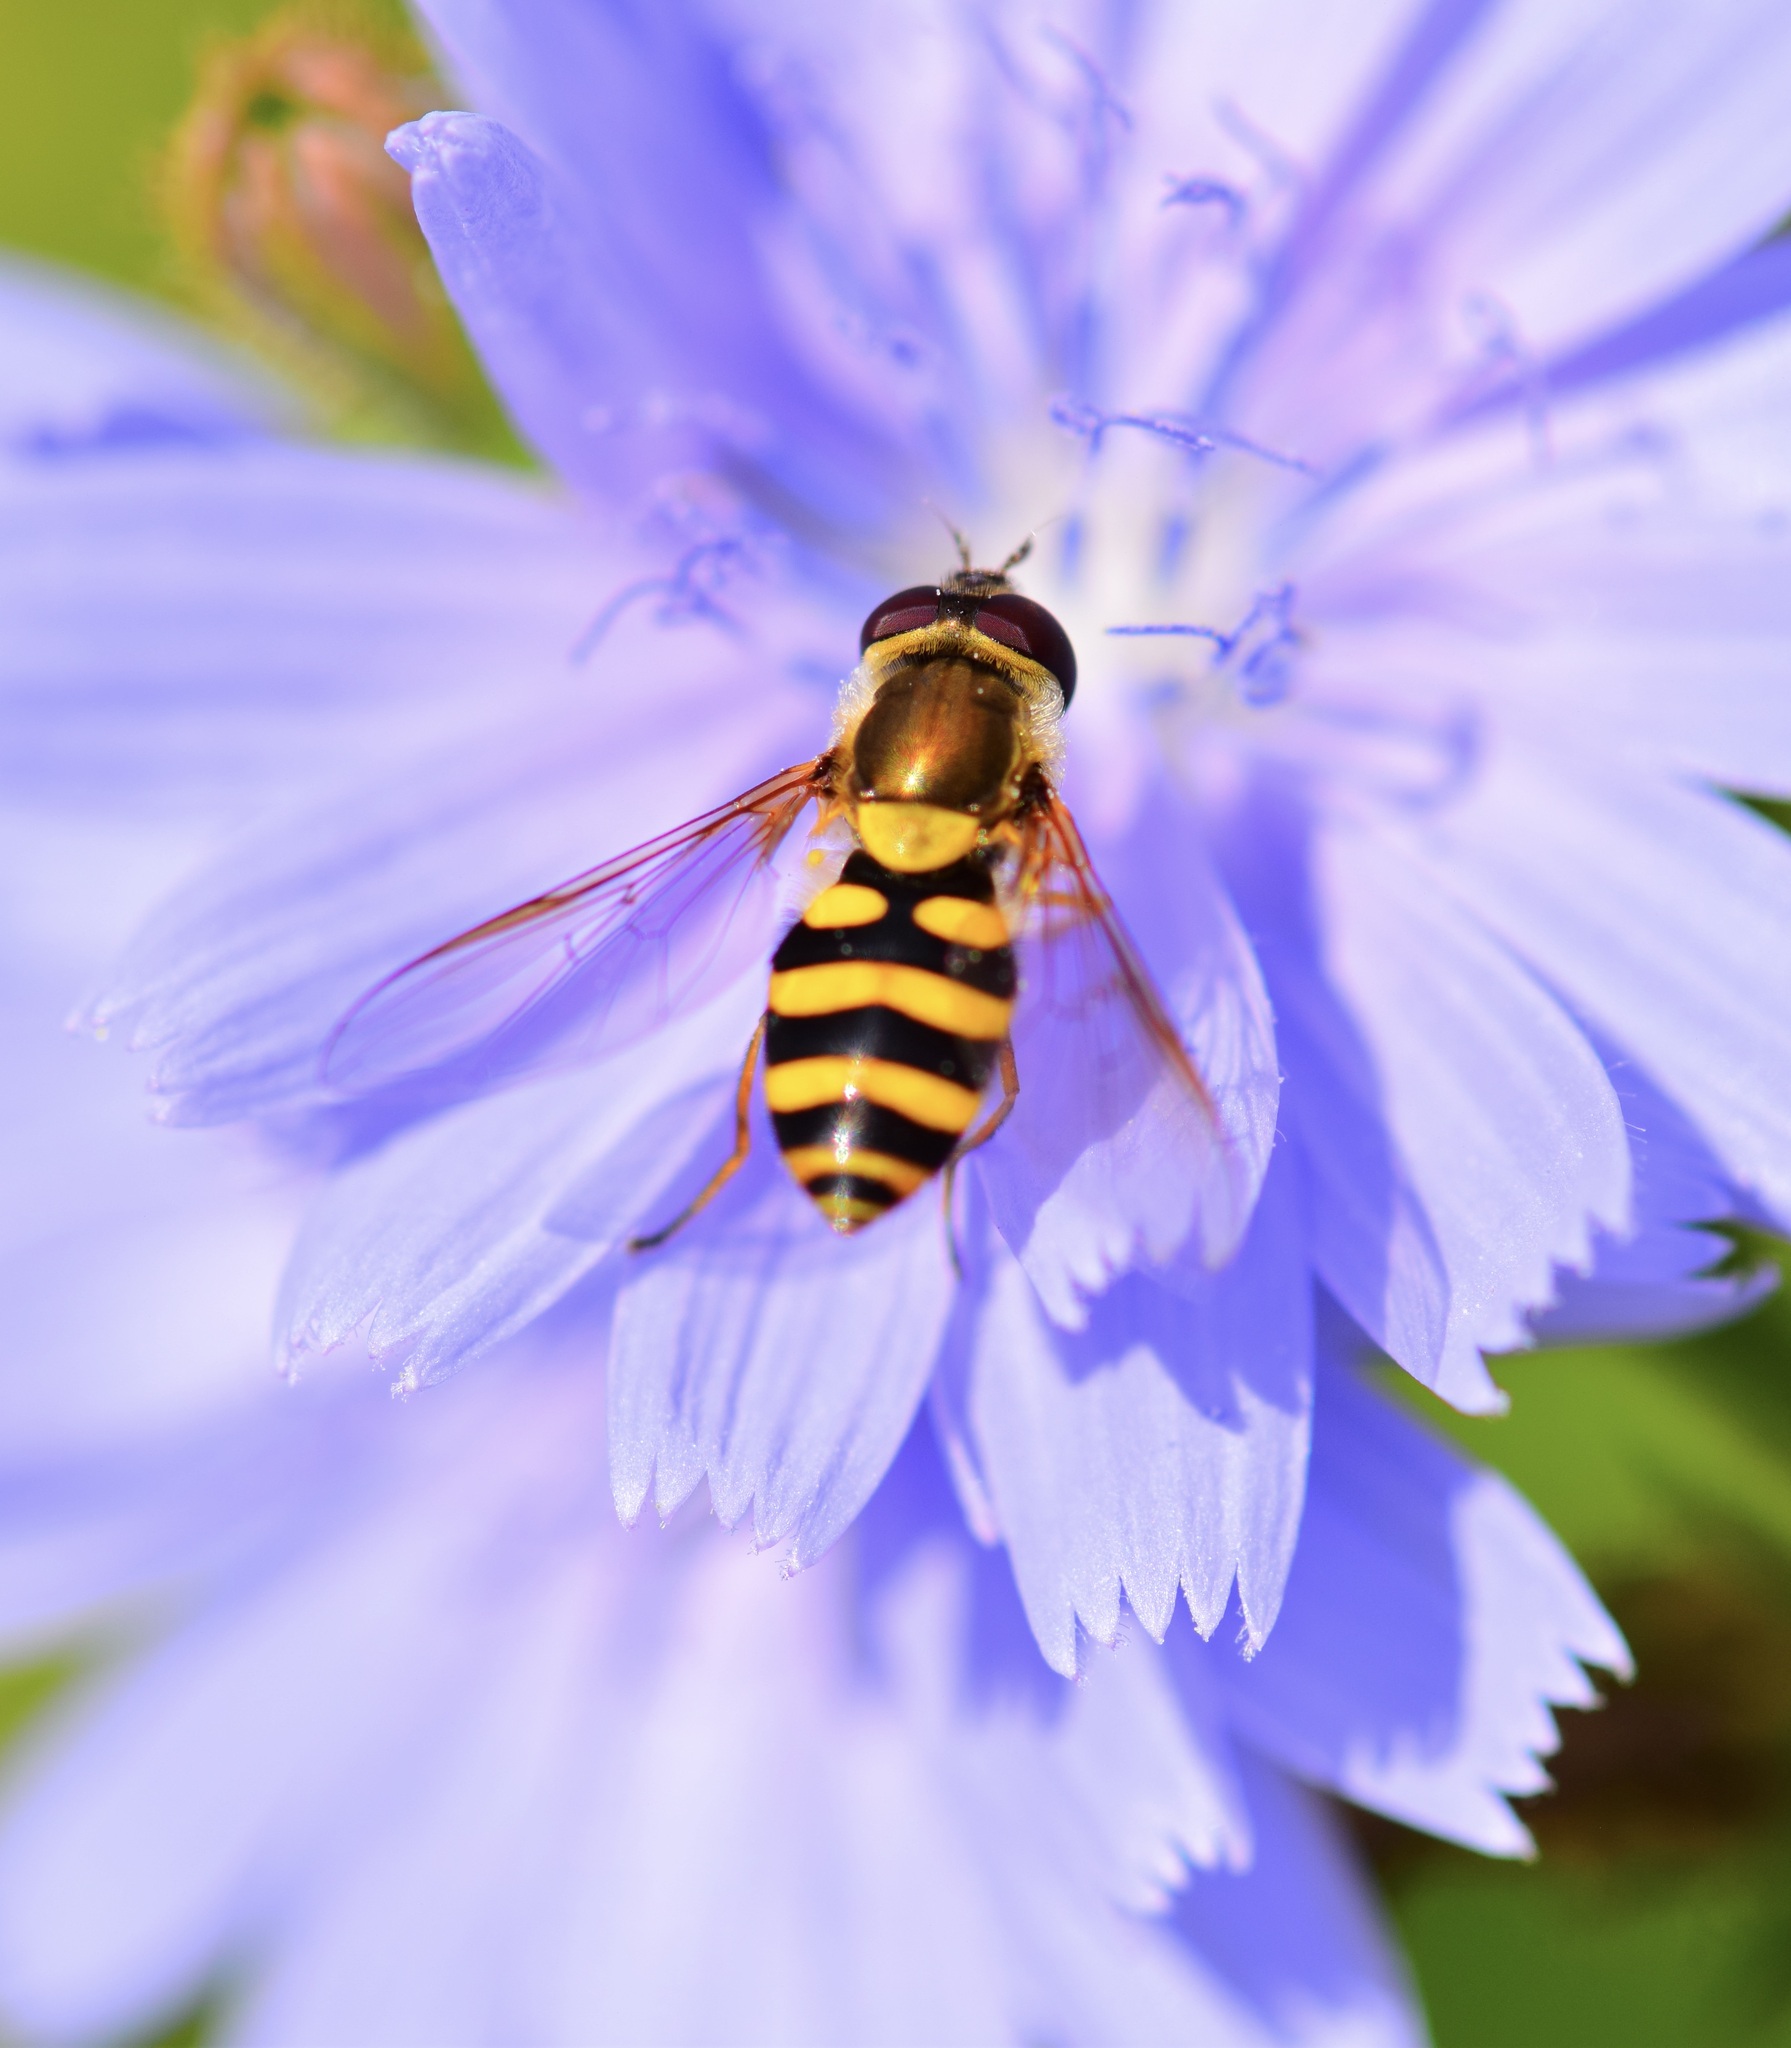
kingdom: Animalia
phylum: Arthropoda
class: Insecta
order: Diptera
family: Syrphidae
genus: Syrphus
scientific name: Syrphus
